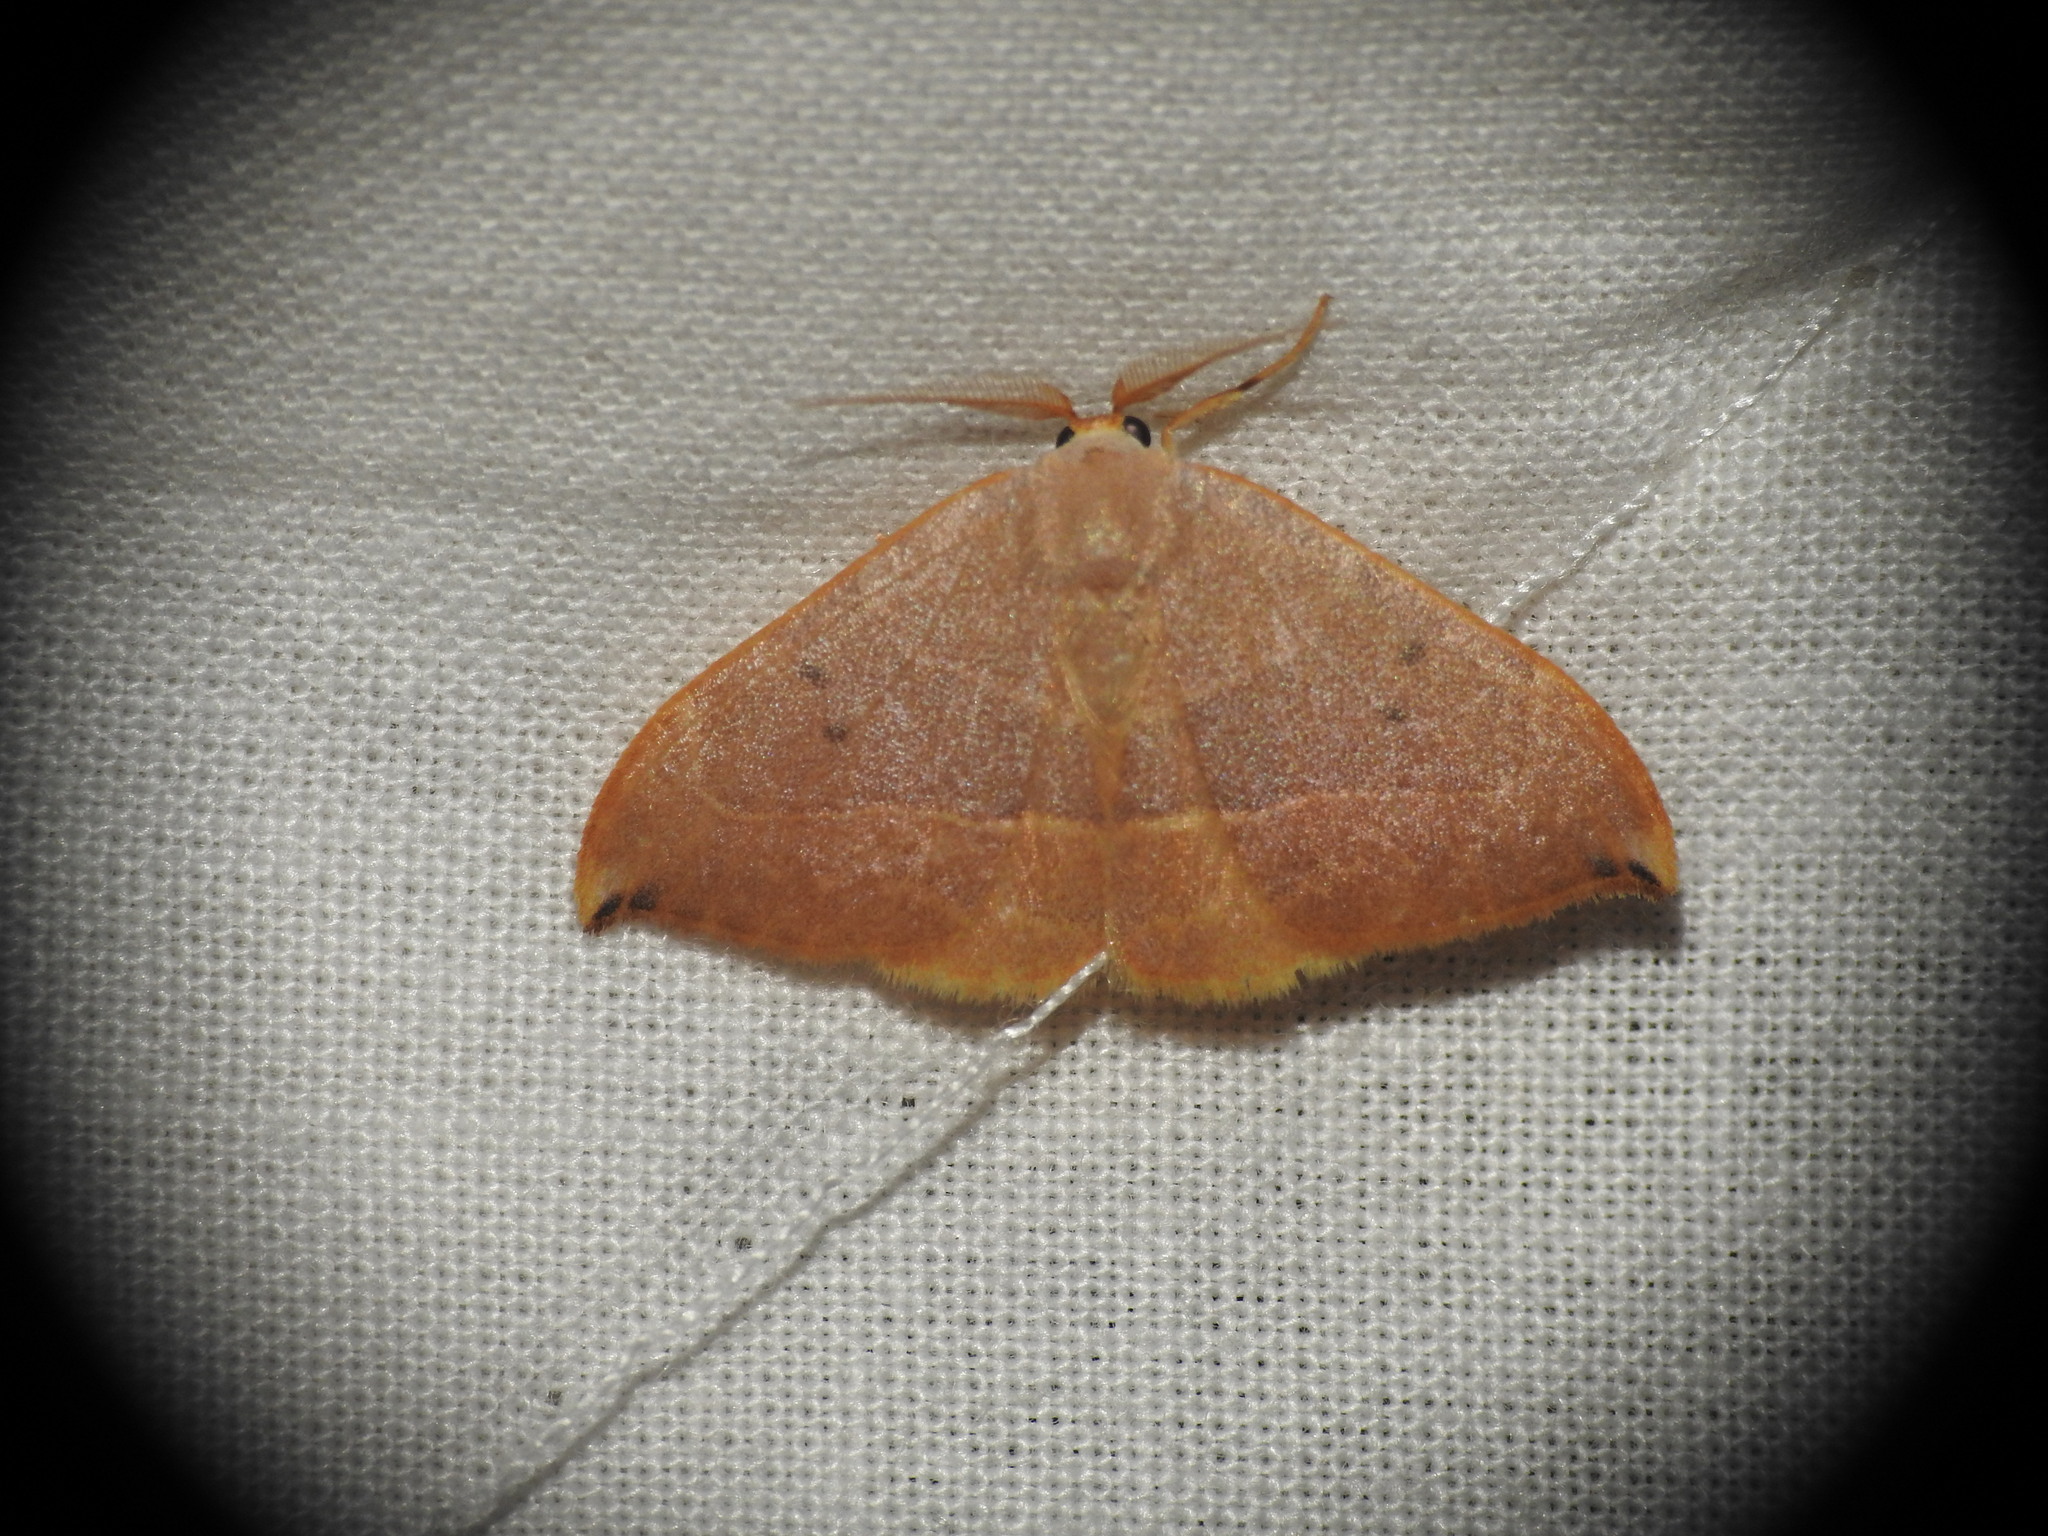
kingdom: Animalia
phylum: Arthropoda
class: Insecta
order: Lepidoptera
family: Drepanidae
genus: Watsonalla
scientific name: Watsonalla uncinula
